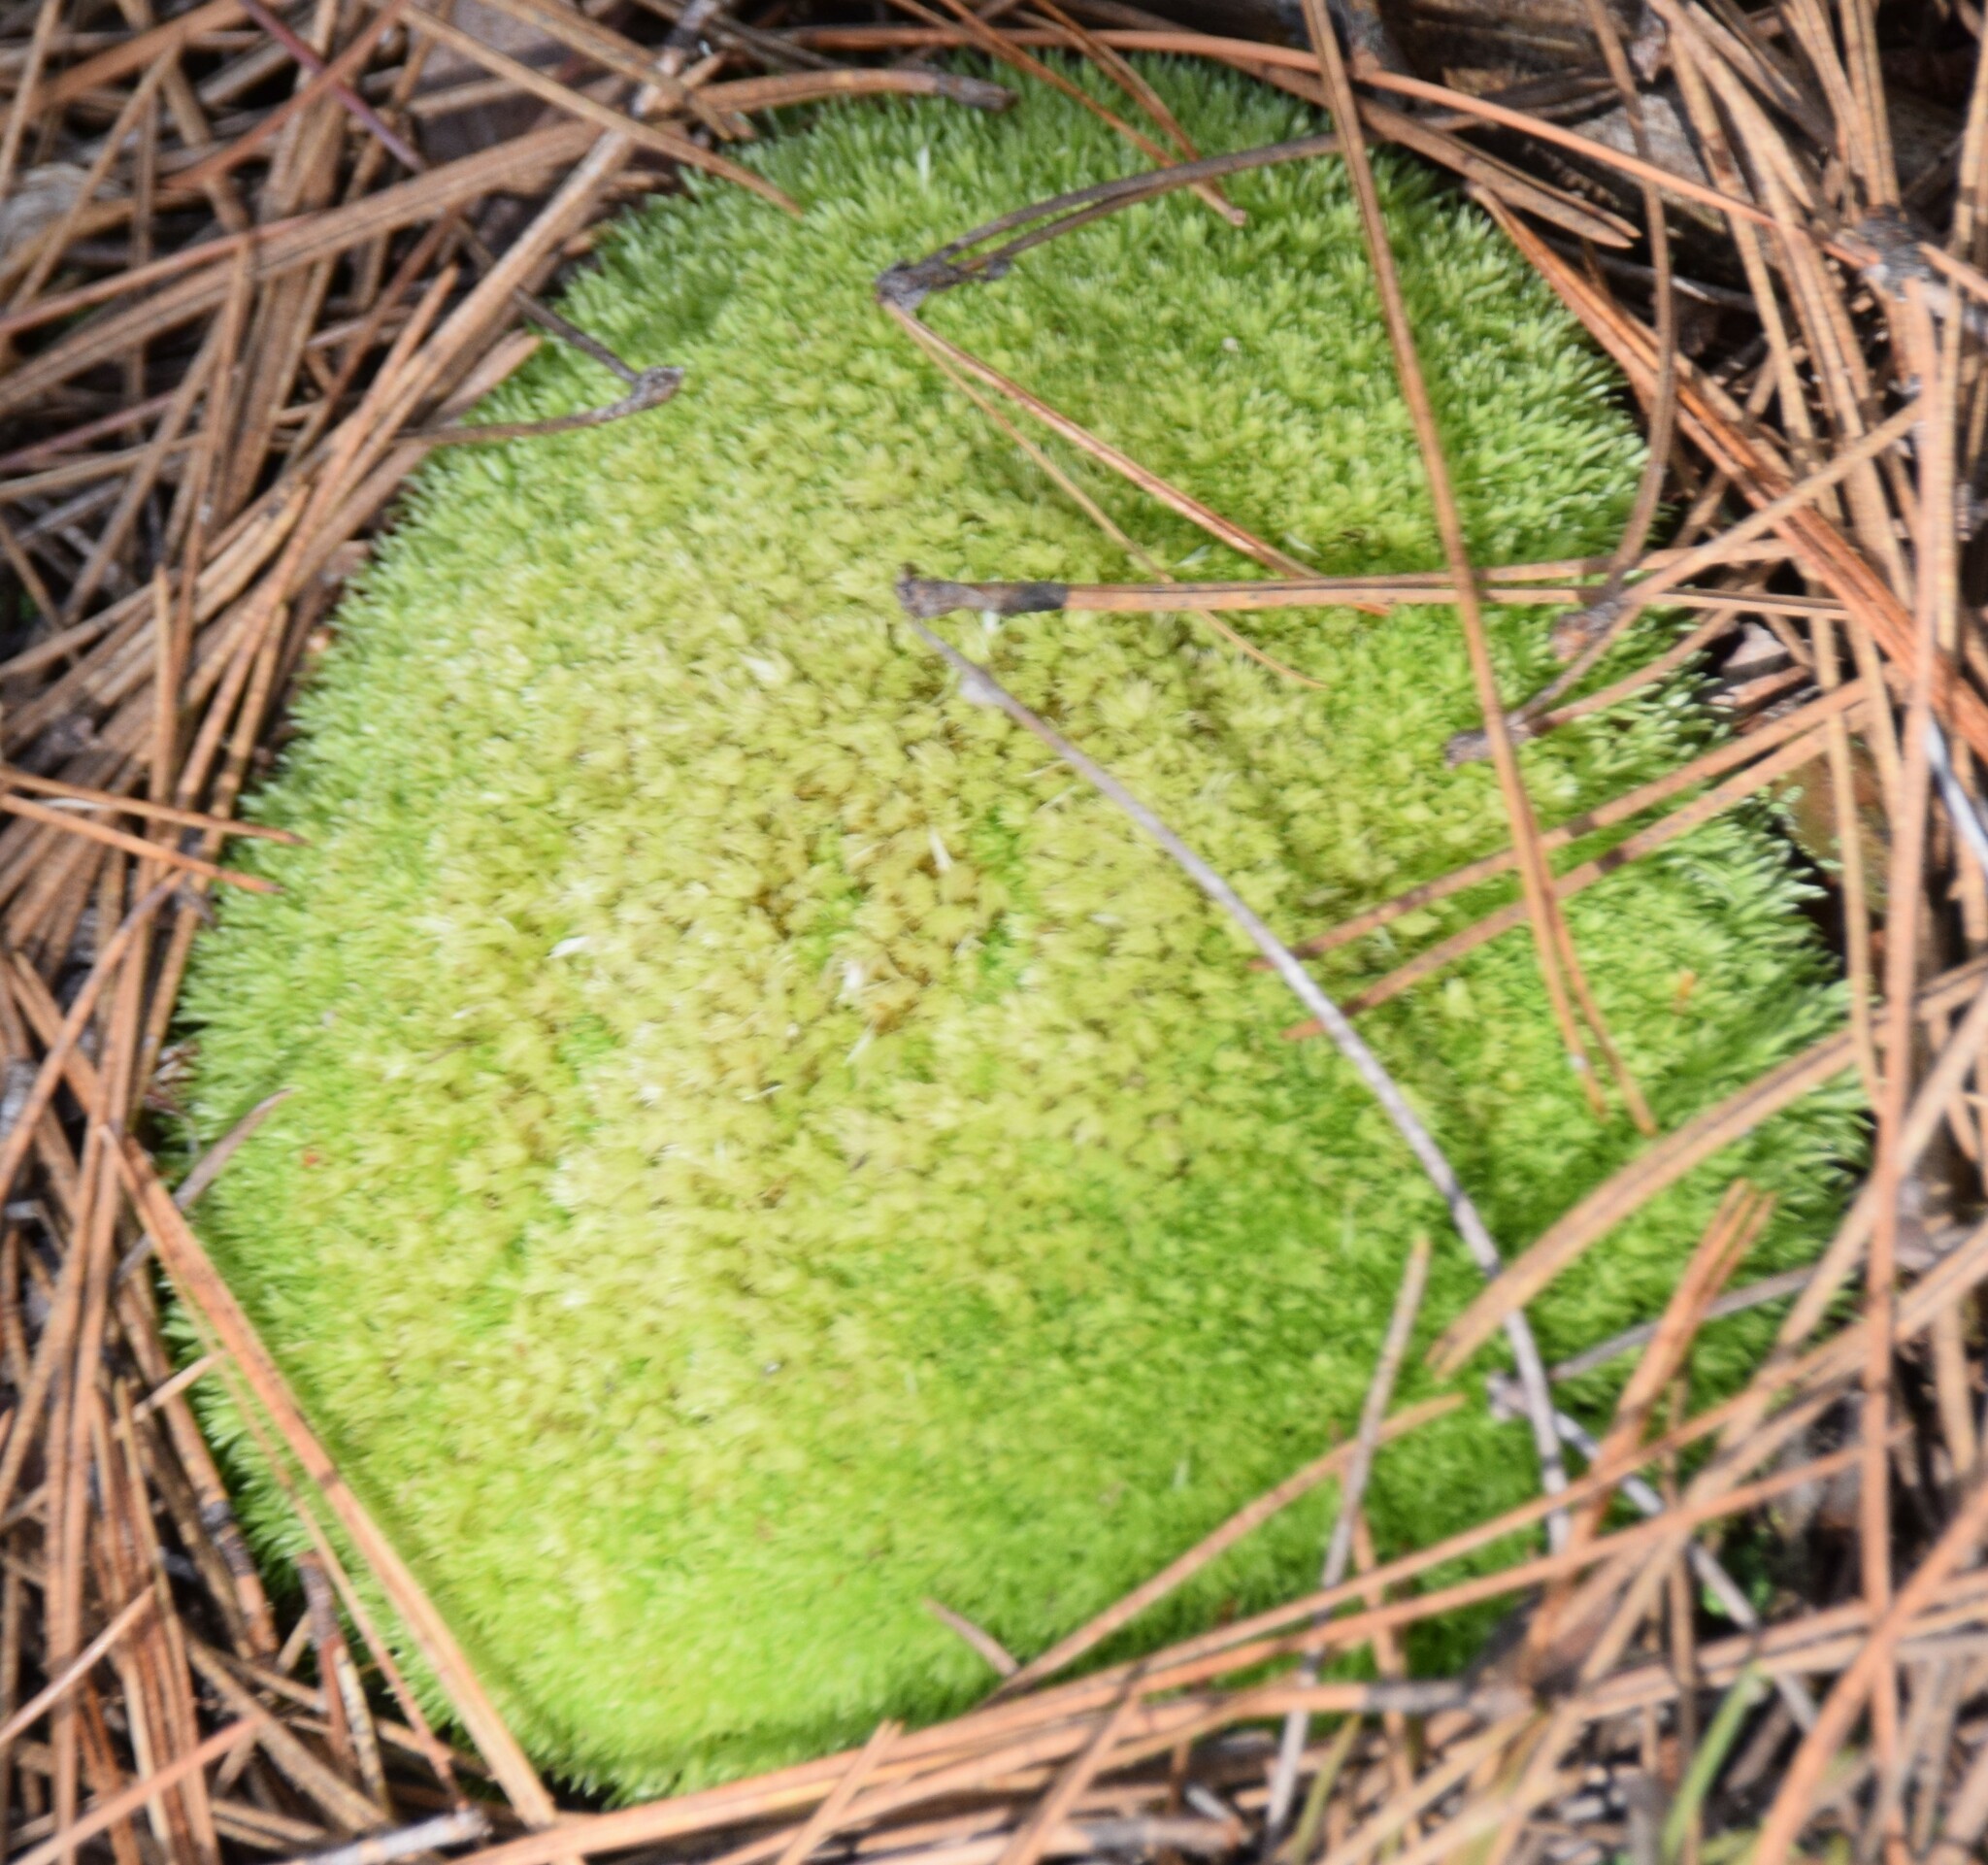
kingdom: Plantae
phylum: Bryophyta
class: Bryopsida
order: Dicranales
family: Leucobryaceae
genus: Leucobryum
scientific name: Leucobryum glaucum
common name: Large white-moss
